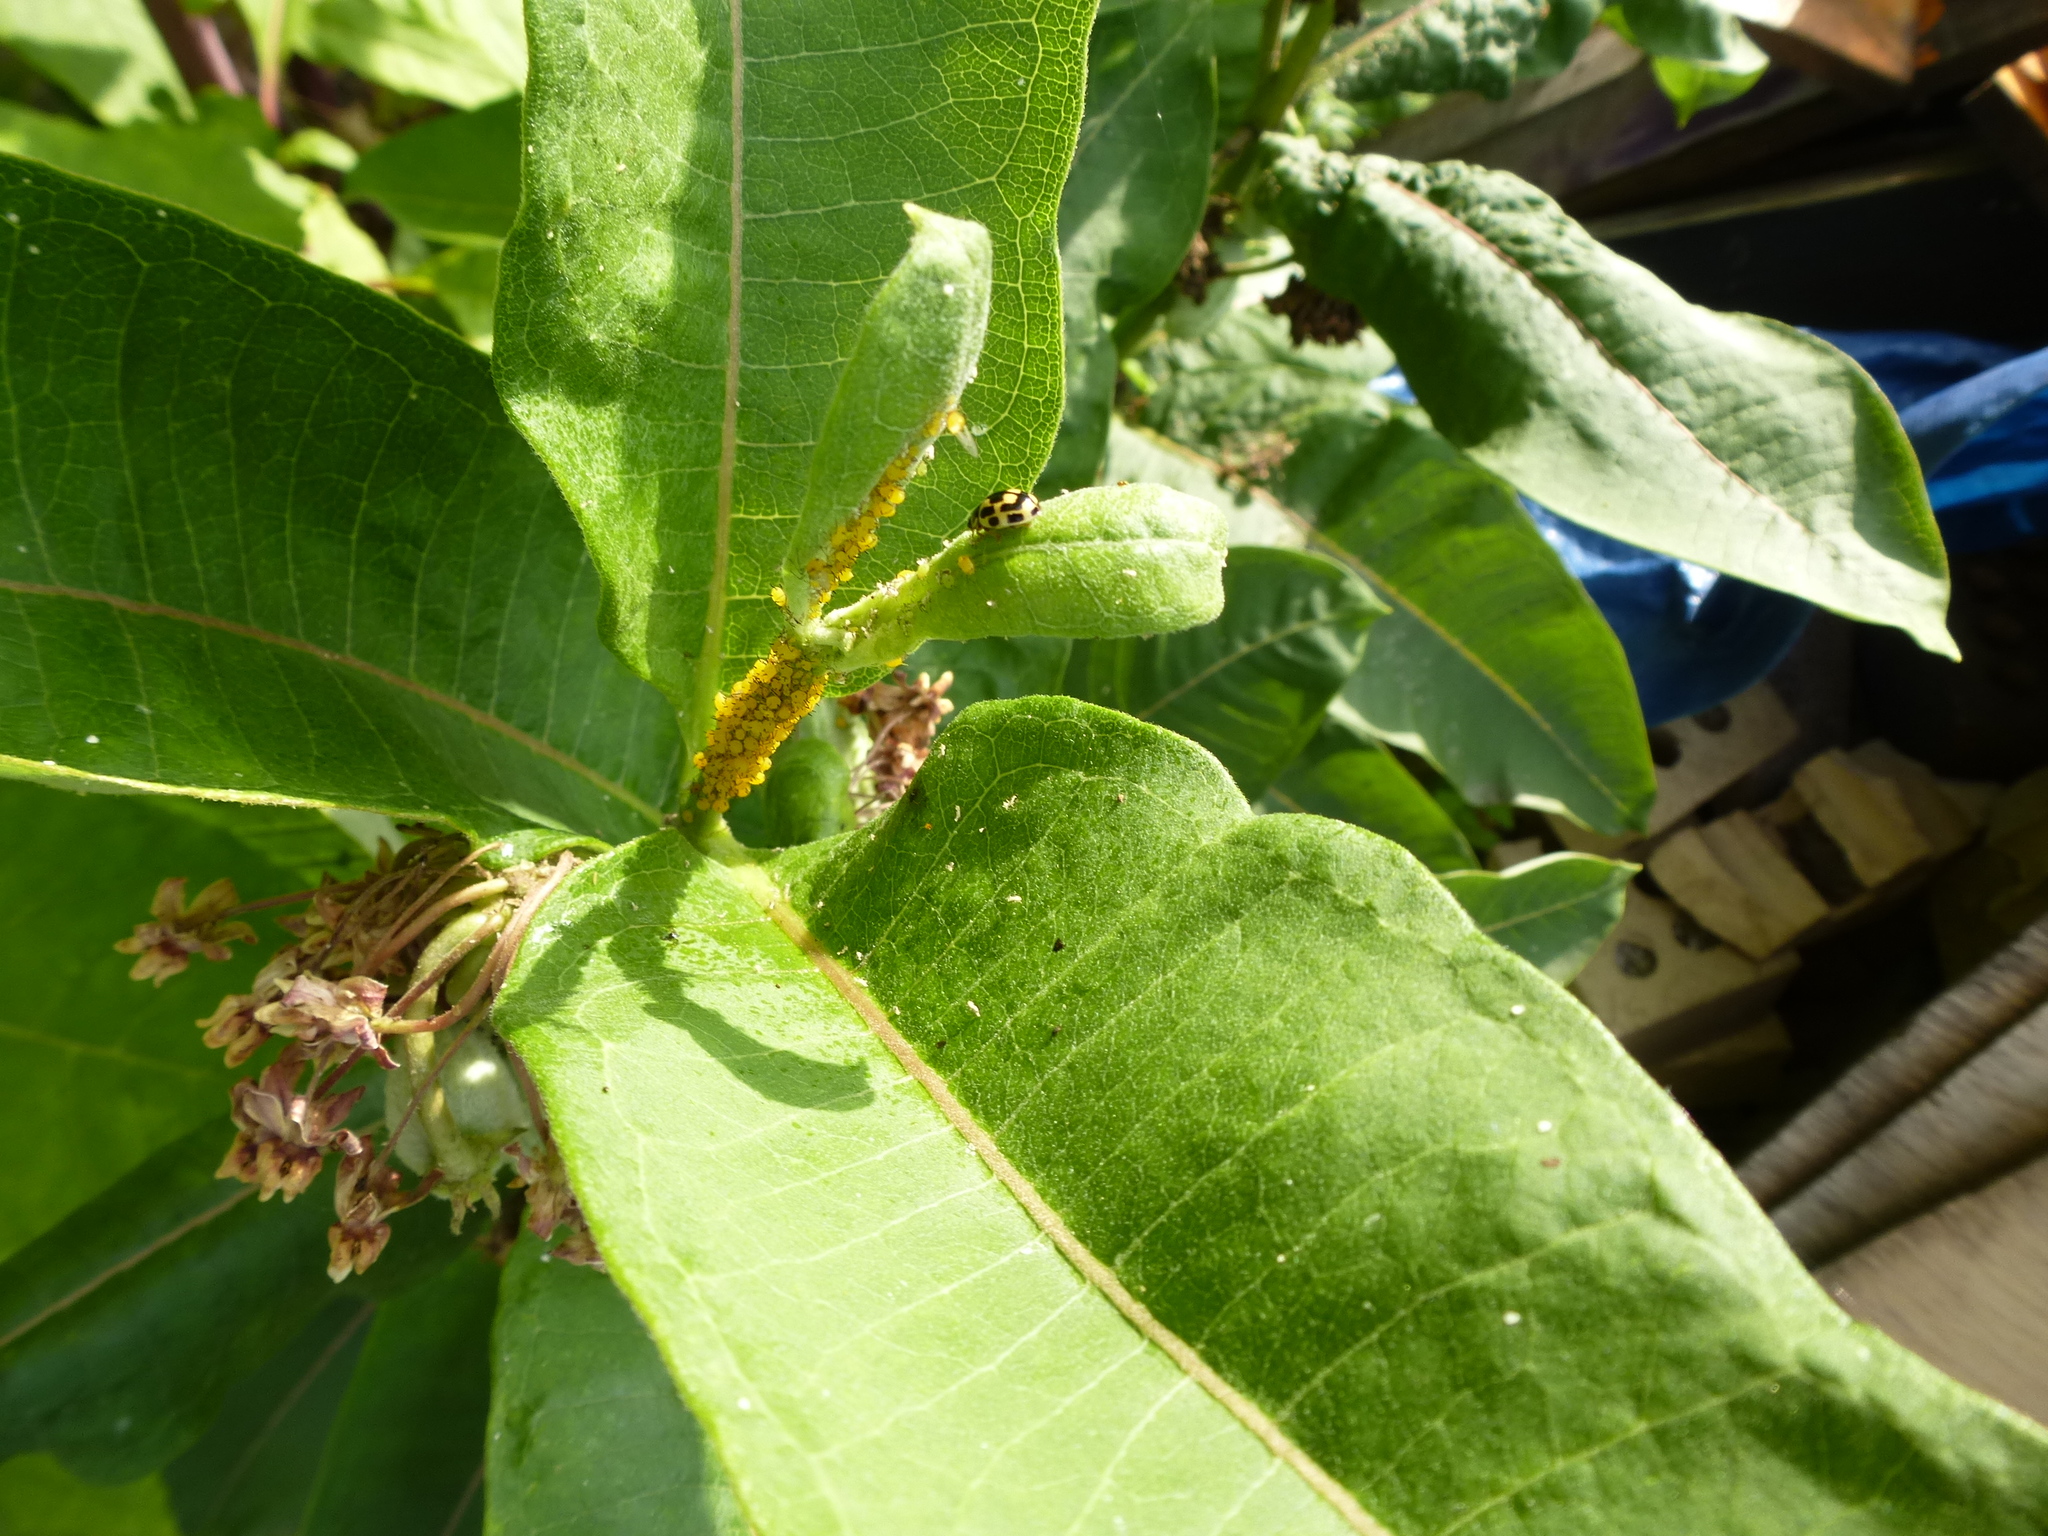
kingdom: Animalia
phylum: Arthropoda
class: Insecta
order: Coleoptera
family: Coccinellidae
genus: Propylaea
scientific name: Propylaea quatuordecimpunctata
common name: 14-spotted ladybird beetle
